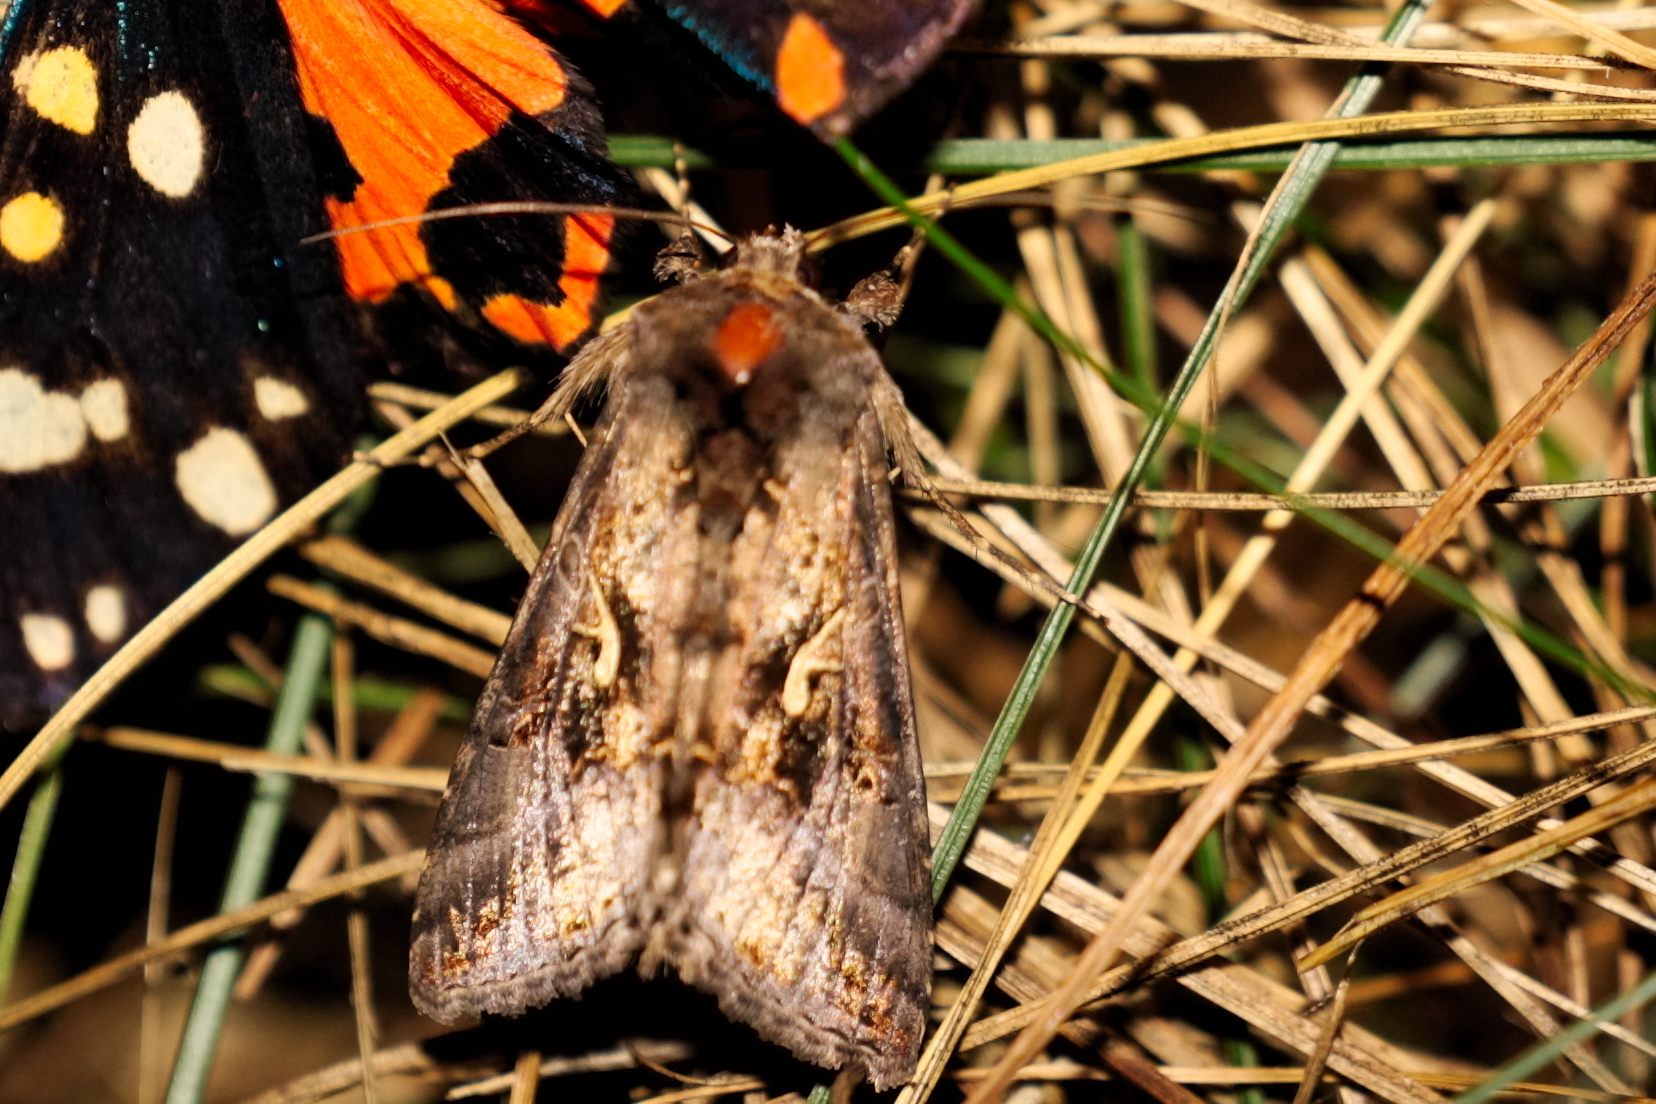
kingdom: Animalia
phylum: Arthropoda
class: Insecta
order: Lepidoptera
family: Noctuidae
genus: Autographa
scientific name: Autographa gamma
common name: Silver y
